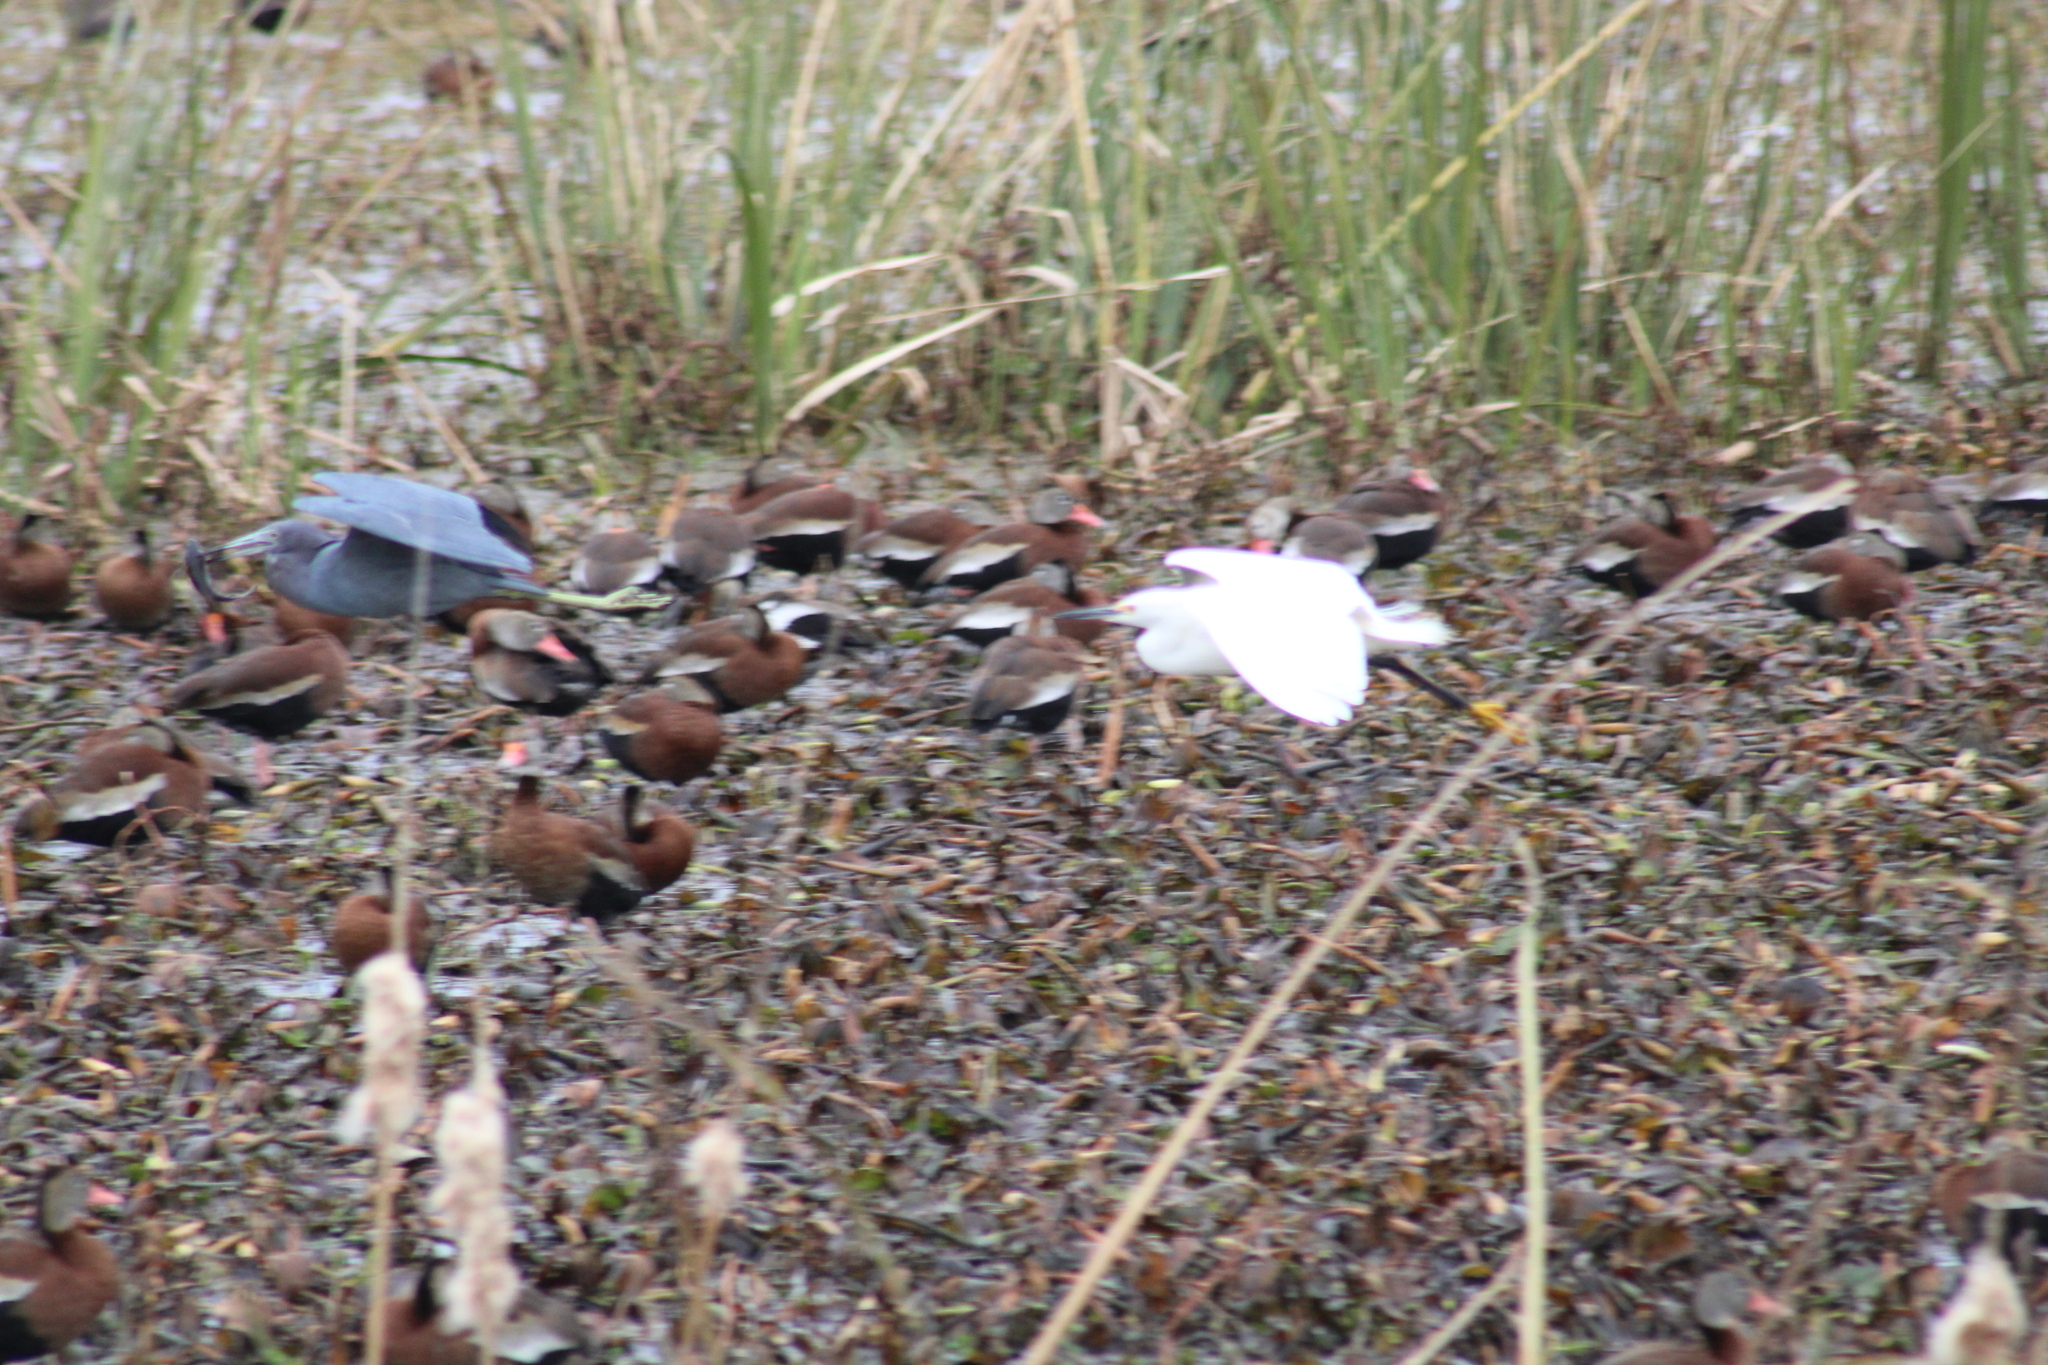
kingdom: Animalia
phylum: Chordata
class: Aves
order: Pelecaniformes
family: Ardeidae
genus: Egretta
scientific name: Egretta caerulea
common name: Little blue heron
